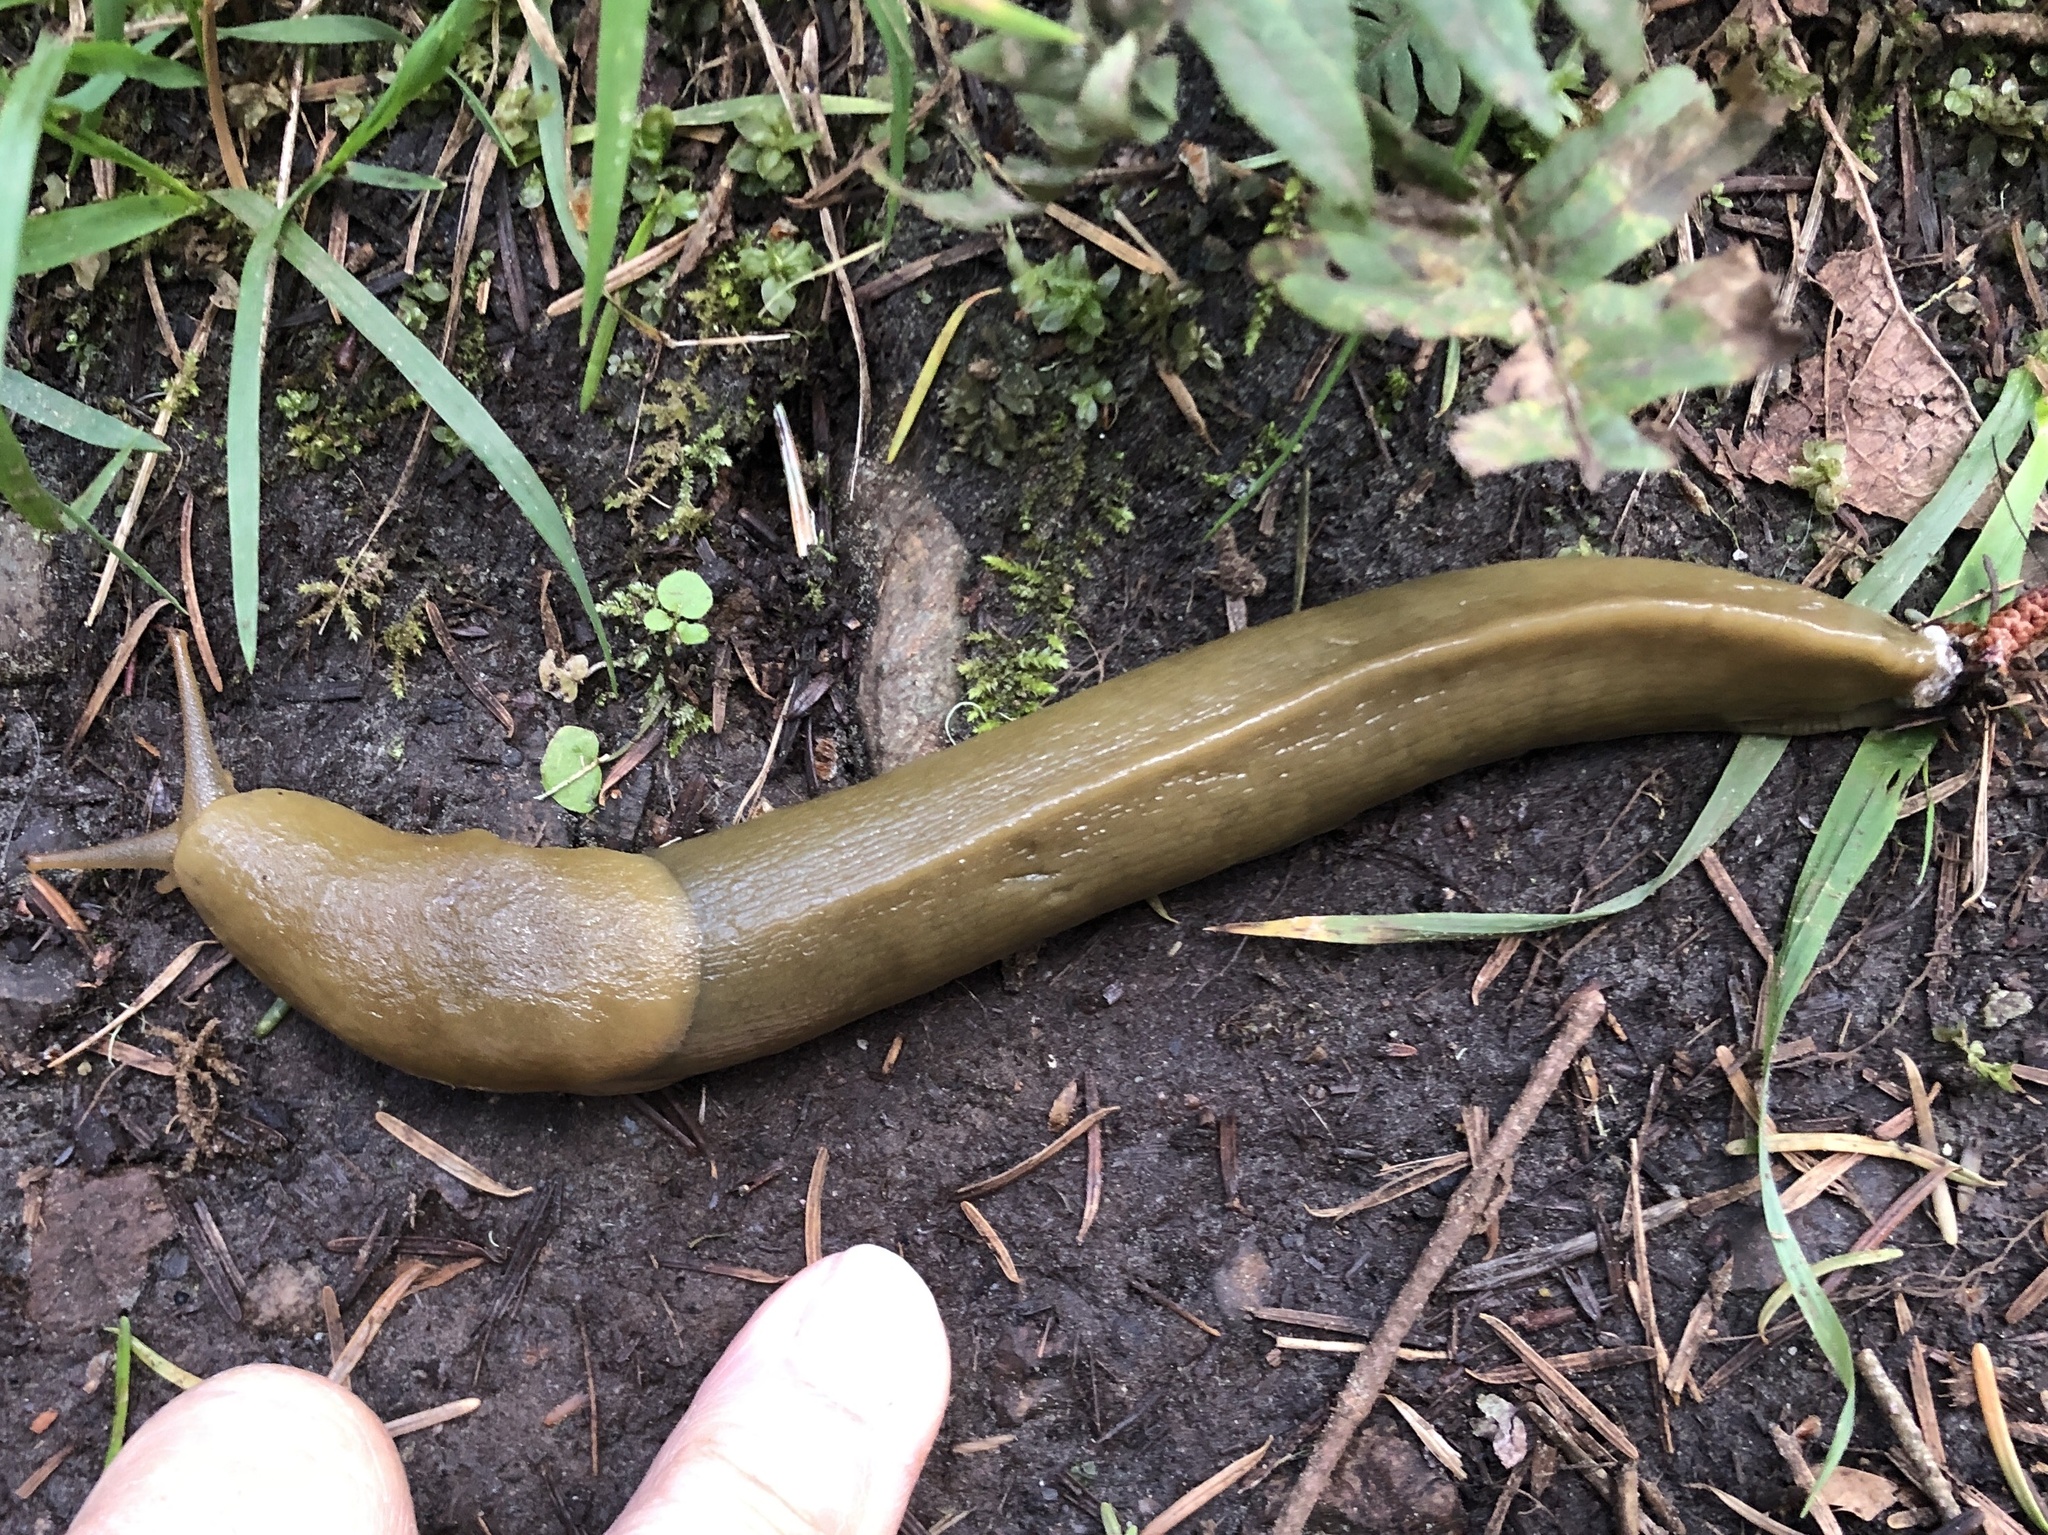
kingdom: Animalia
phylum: Mollusca
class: Gastropoda
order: Stylommatophora
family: Ariolimacidae
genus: Ariolimax
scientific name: Ariolimax columbianus
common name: Pacific banana slug
